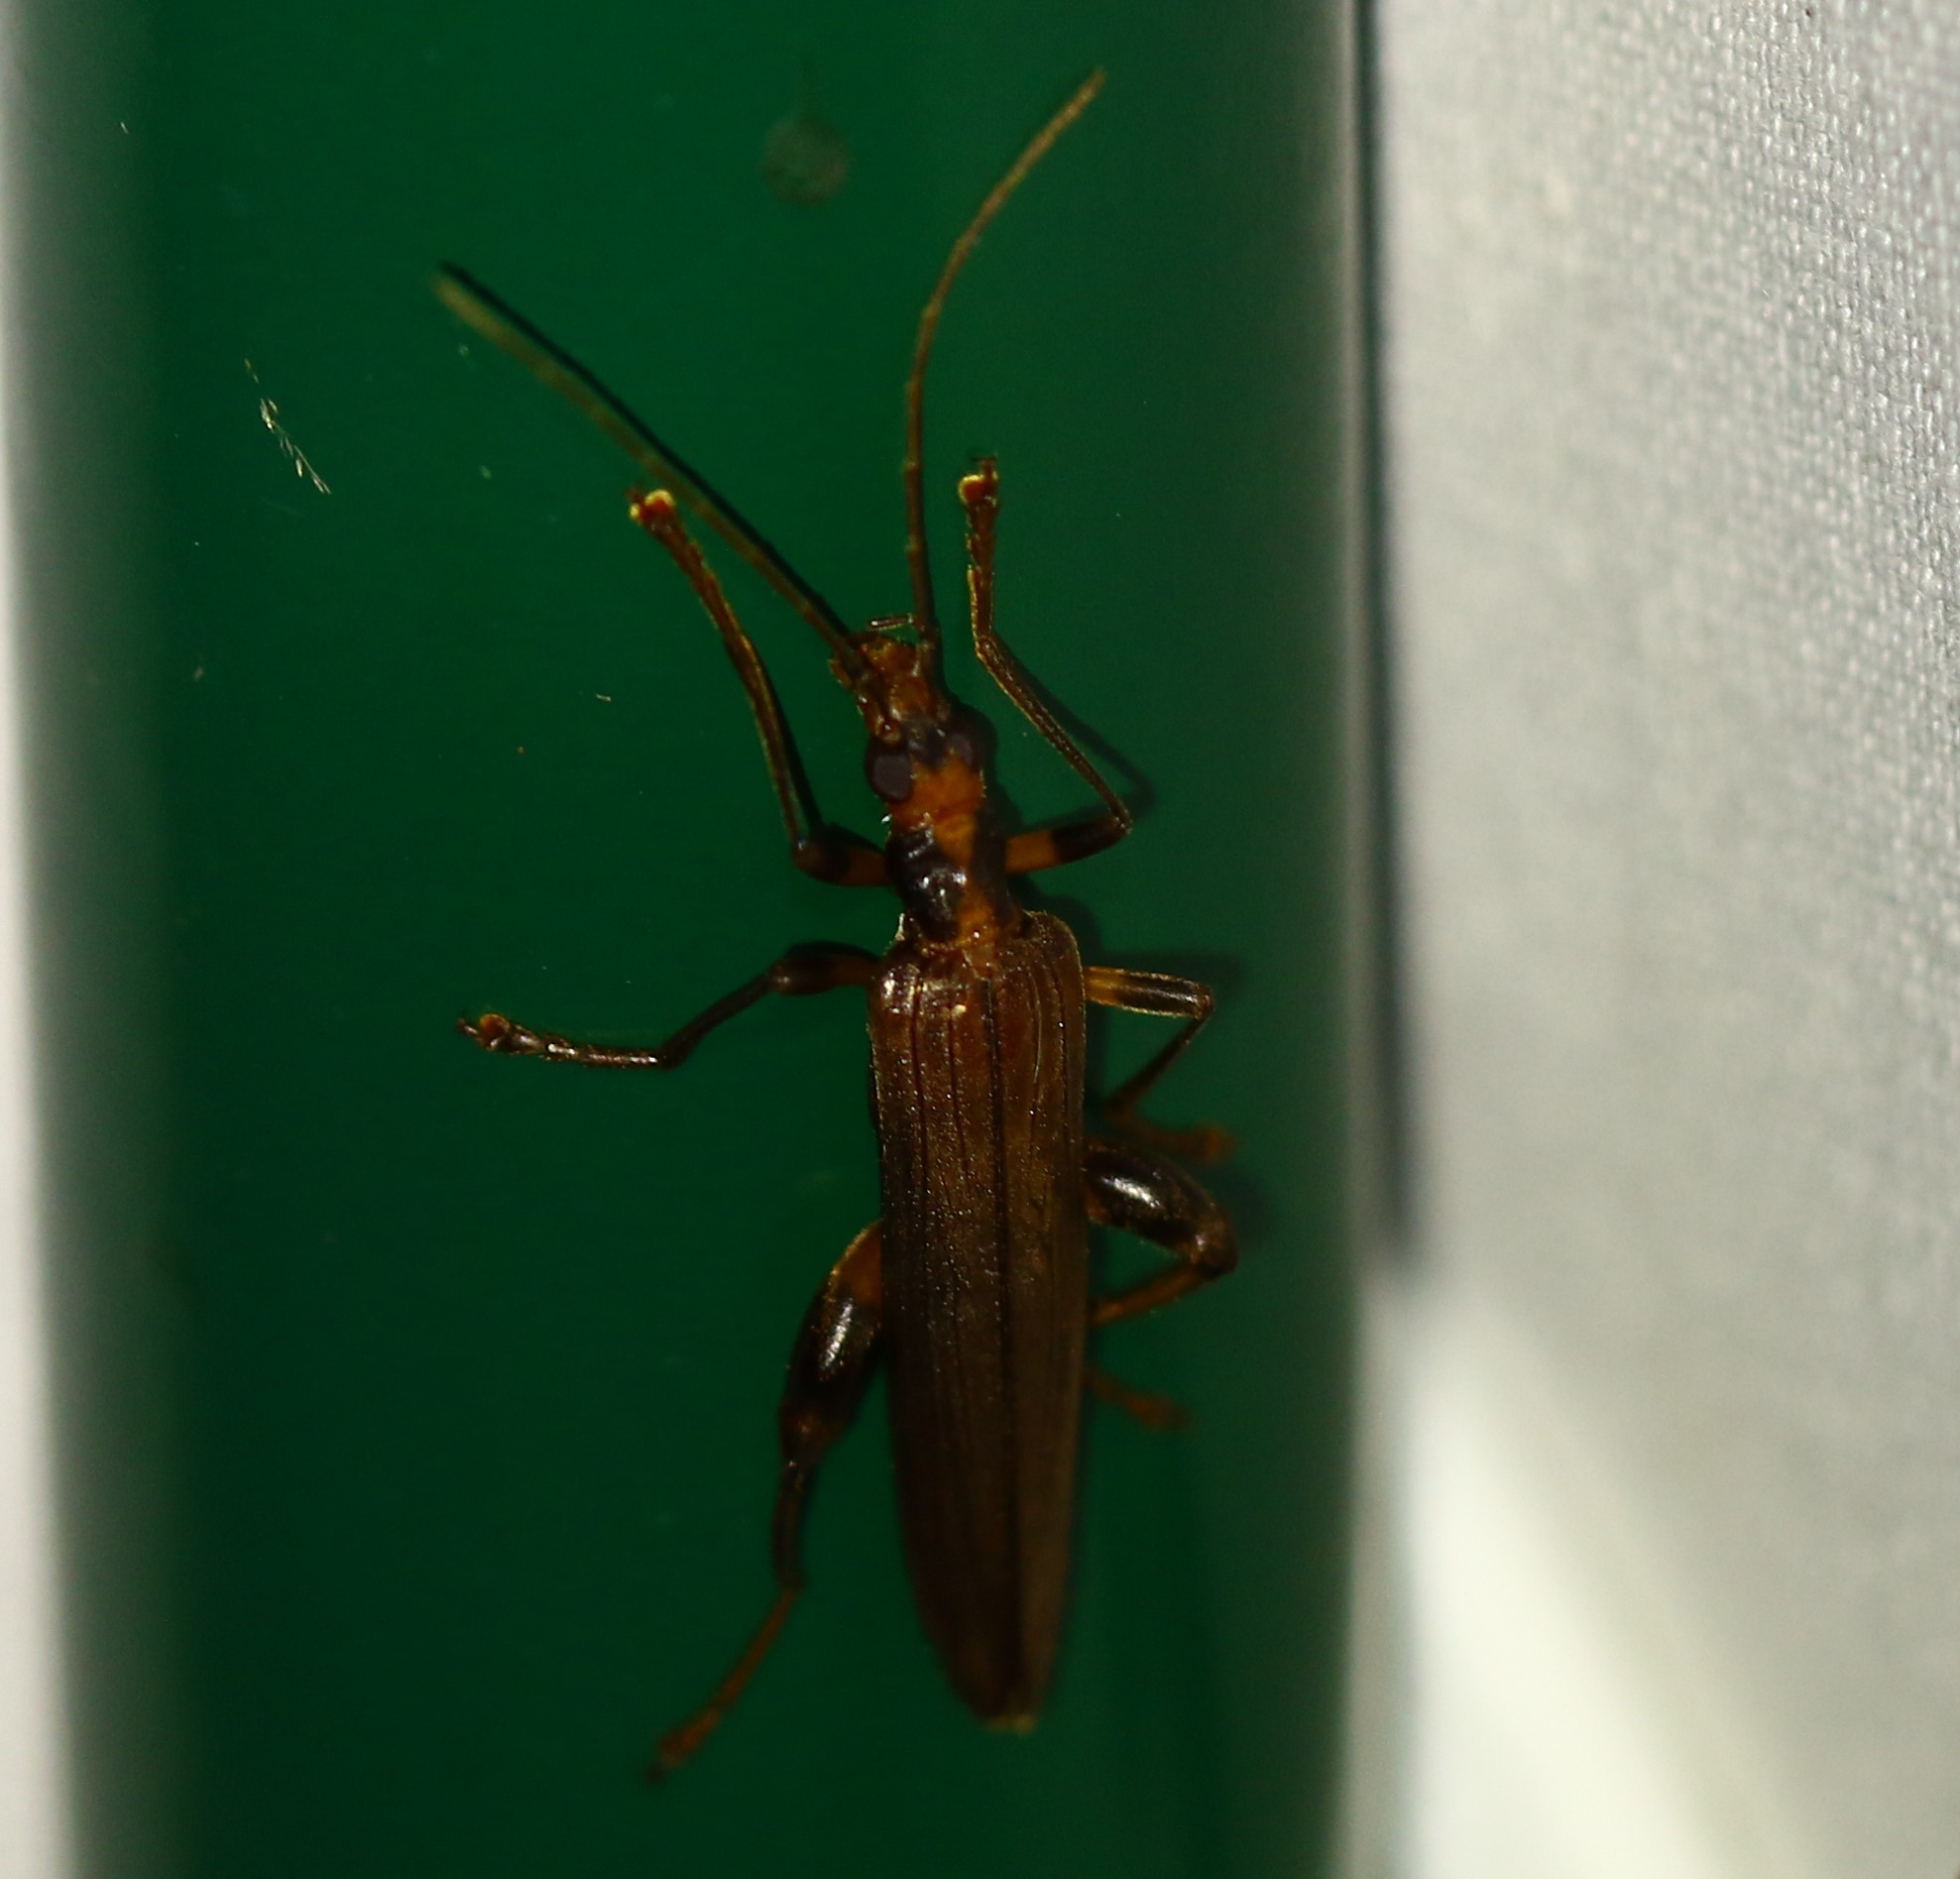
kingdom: Animalia
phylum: Arthropoda
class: Insecta
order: Coleoptera
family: Oedemeridae
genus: Oedemera
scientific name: Oedemera femoralis
